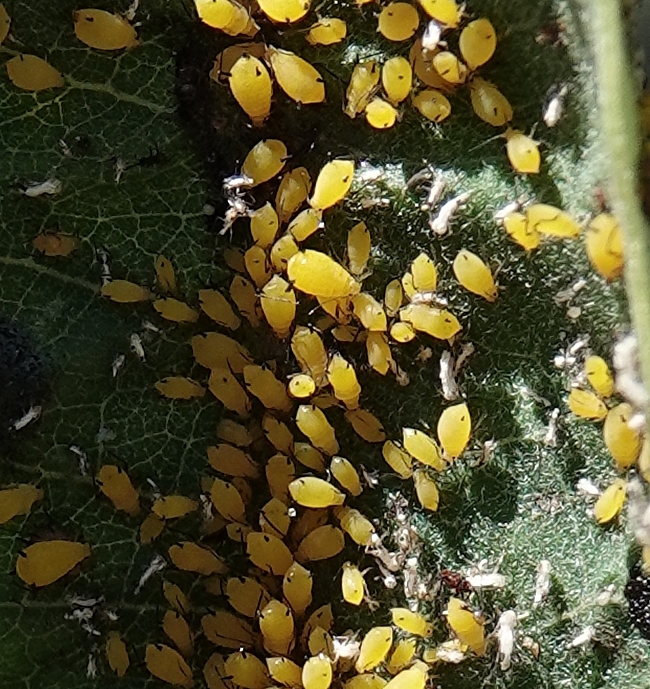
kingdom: Animalia
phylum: Arthropoda
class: Insecta
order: Hemiptera
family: Aphididae
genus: Aphis
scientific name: Aphis nerii
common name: Oleander aphid
